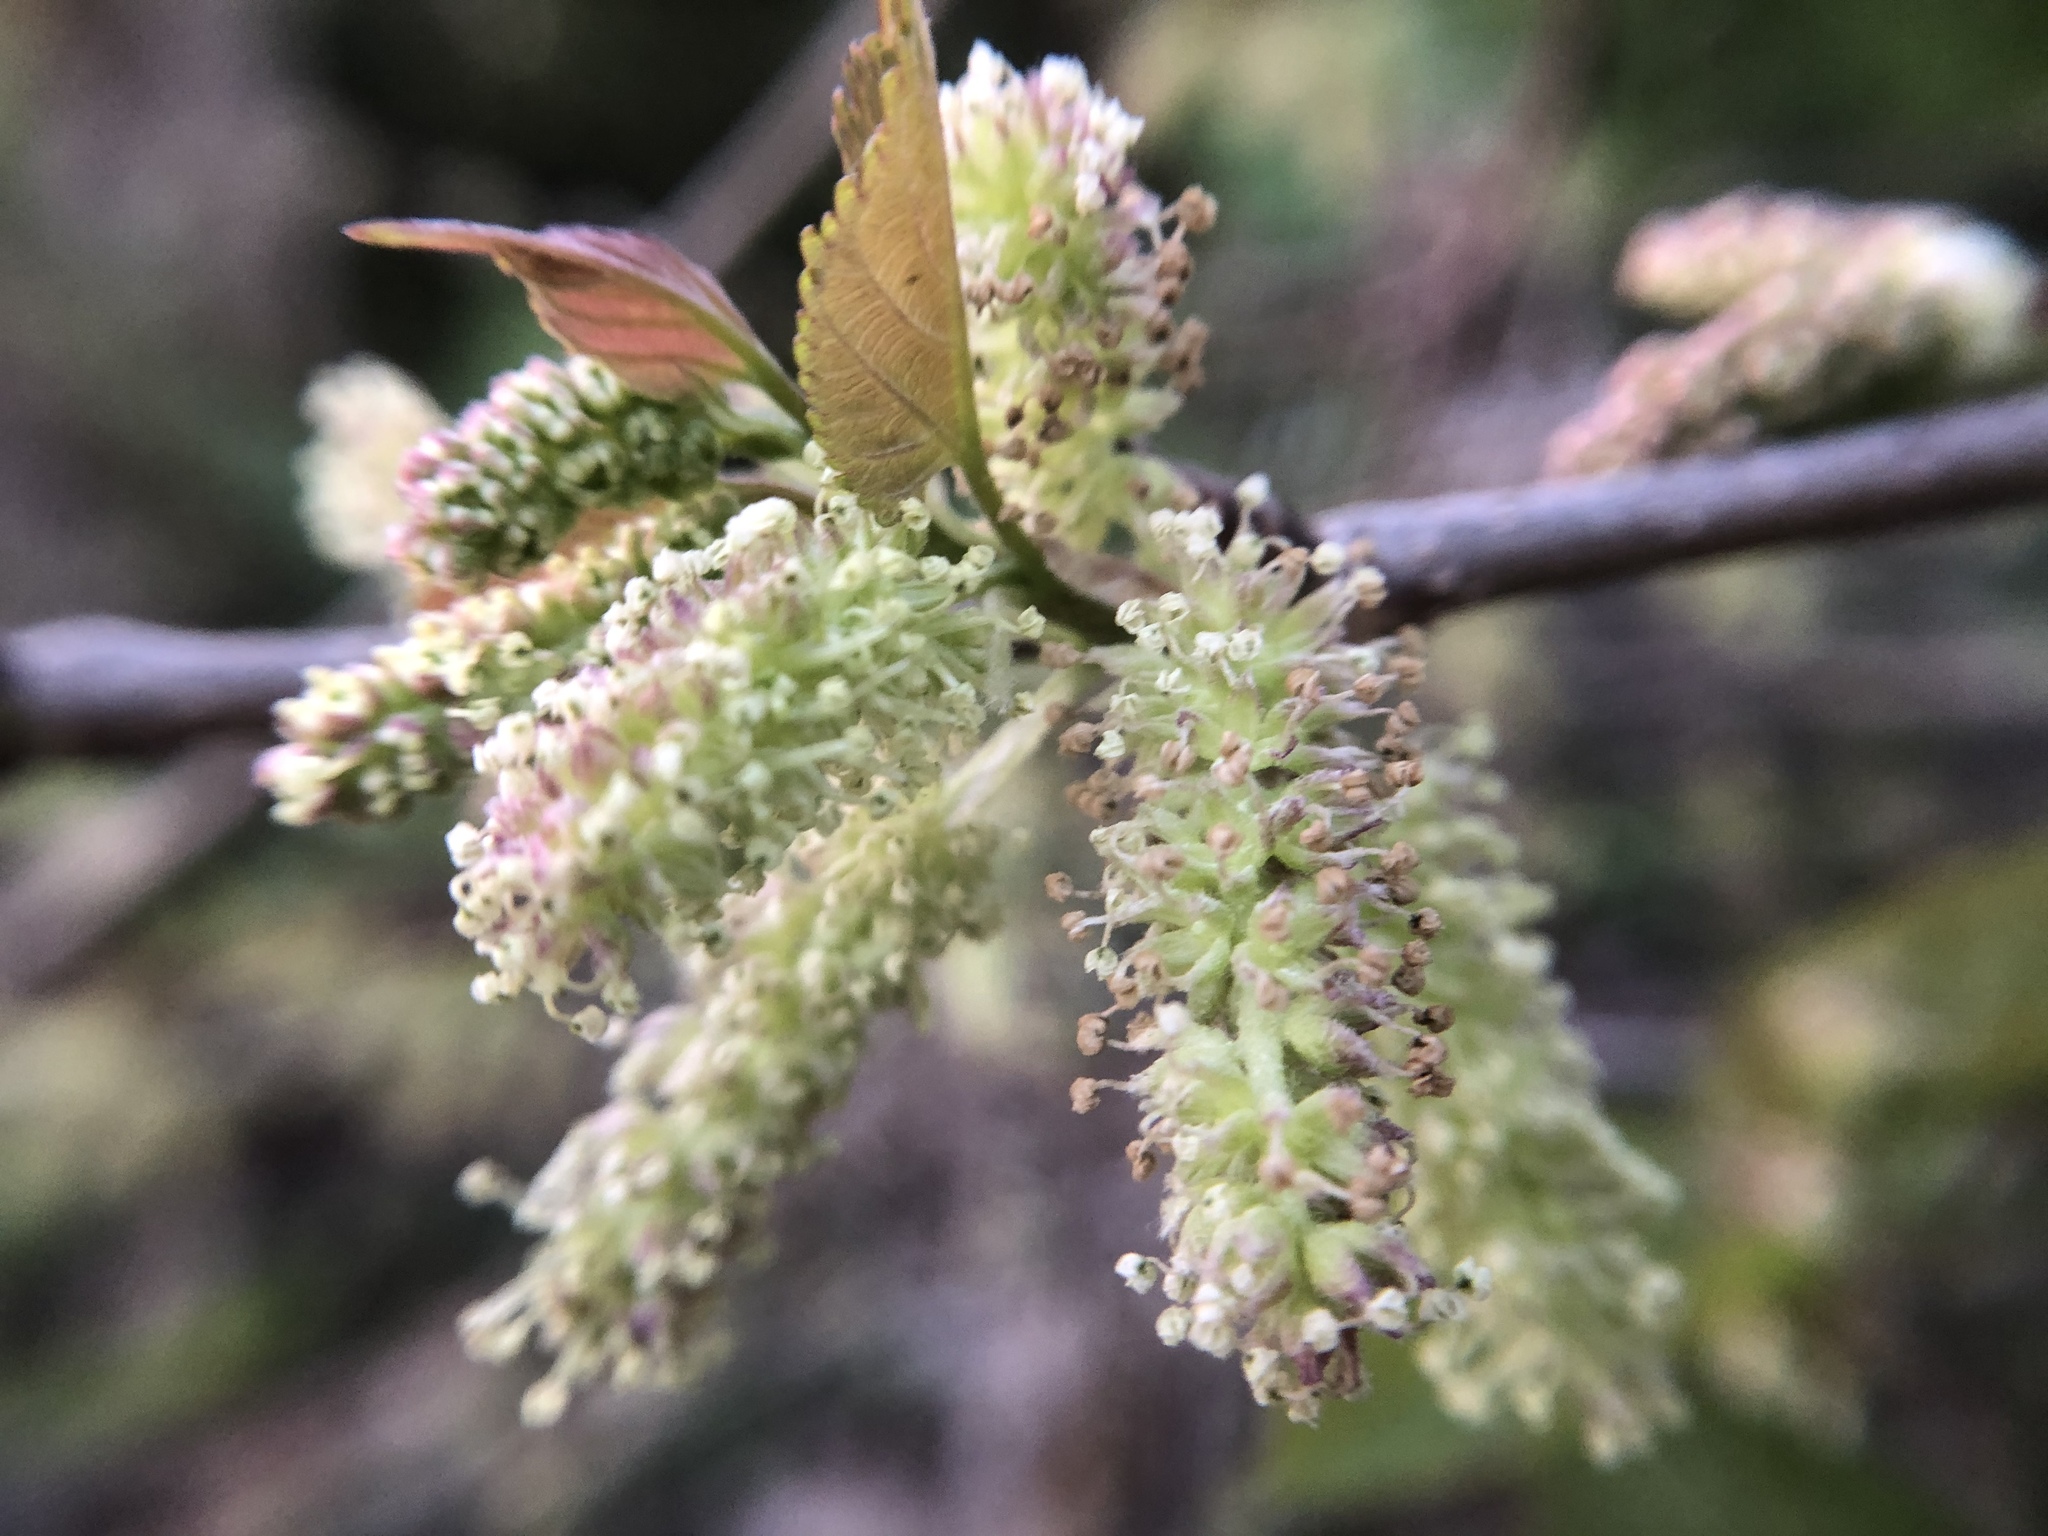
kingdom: Plantae
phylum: Tracheophyta
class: Magnoliopsida
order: Rosales
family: Moraceae
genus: Morus
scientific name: Morus indica
